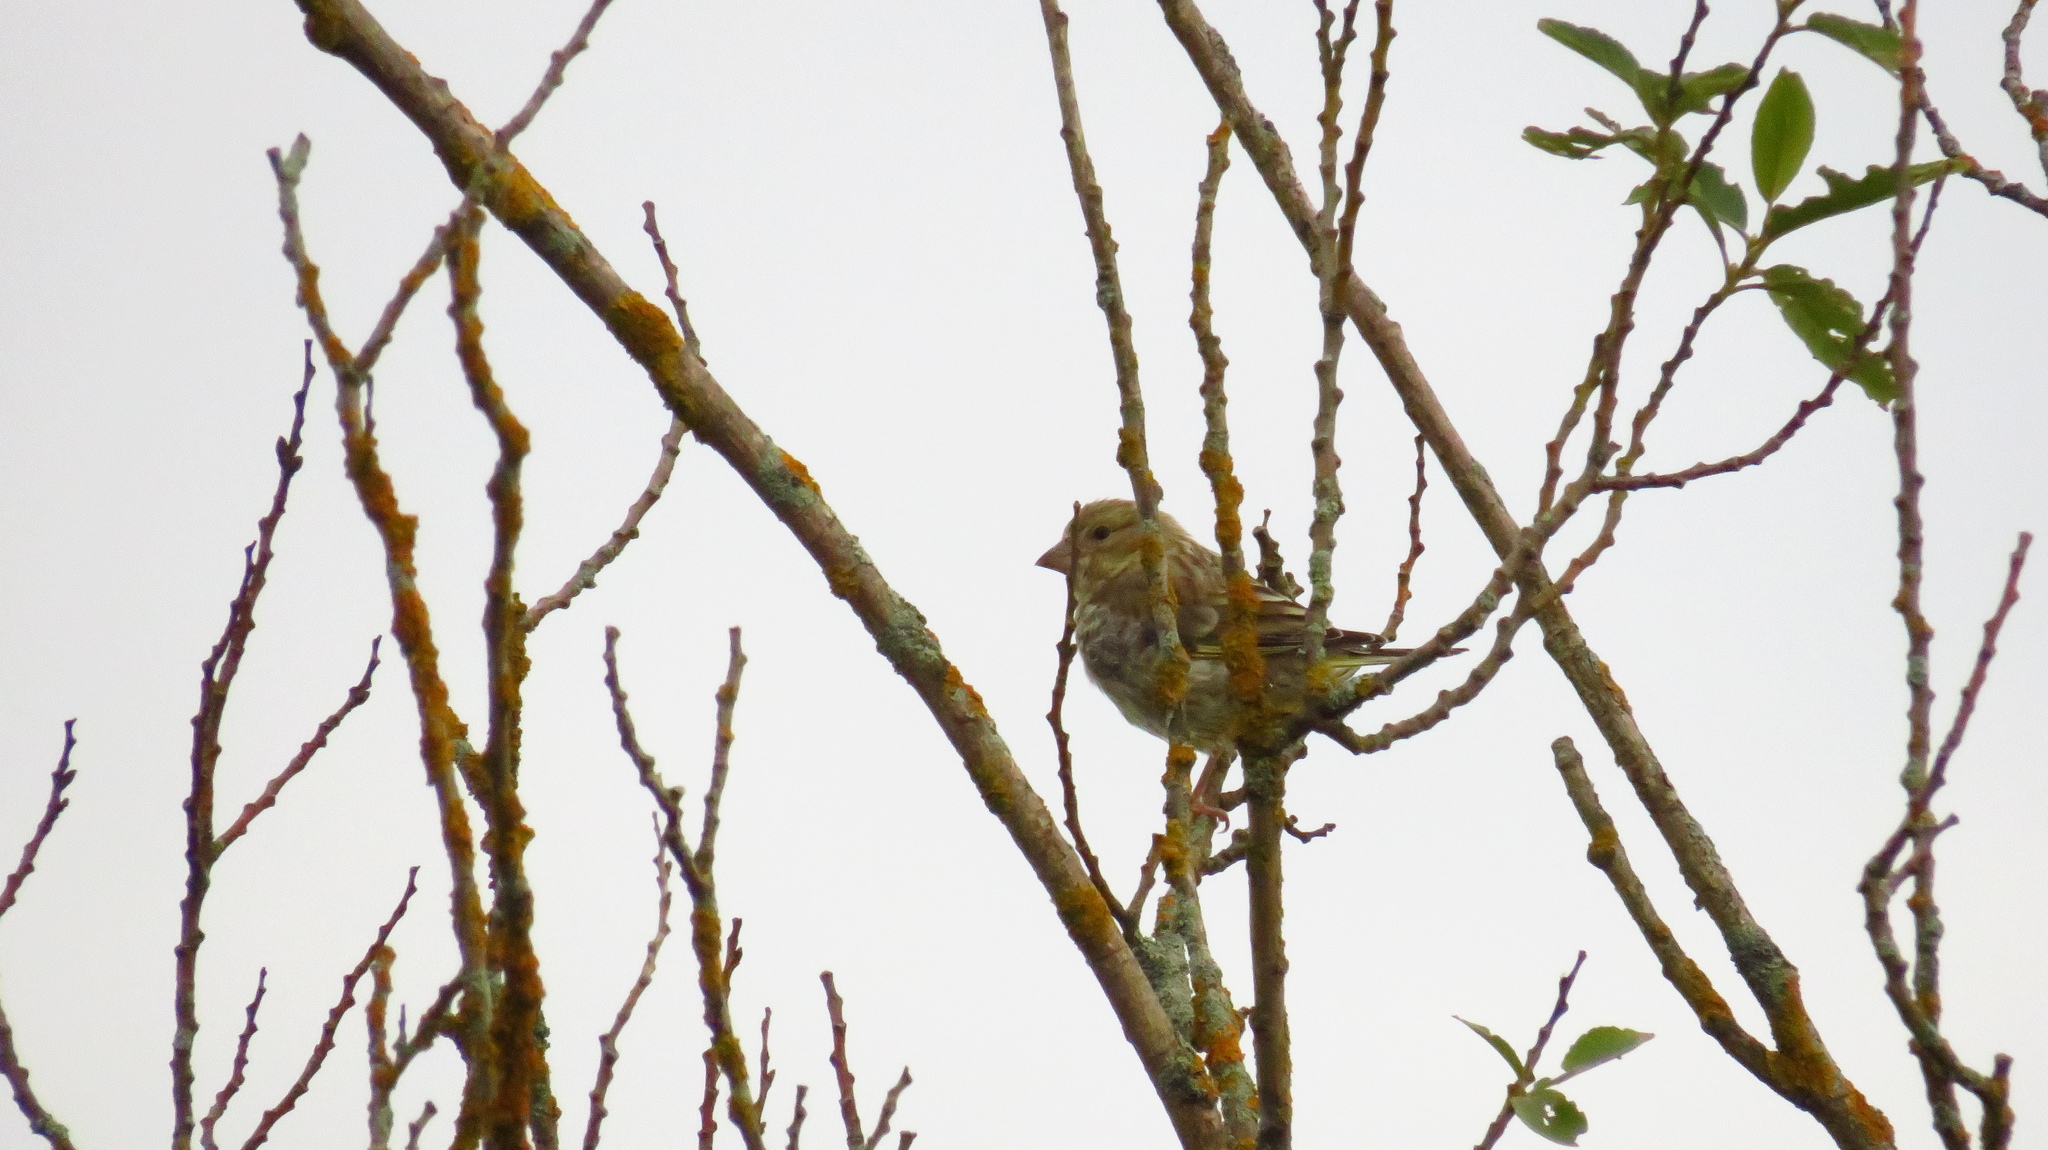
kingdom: Plantae
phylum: Tracheophyta
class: Liliopsida
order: Poales
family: Poaceae
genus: Chloris
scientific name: Chloris chloris
